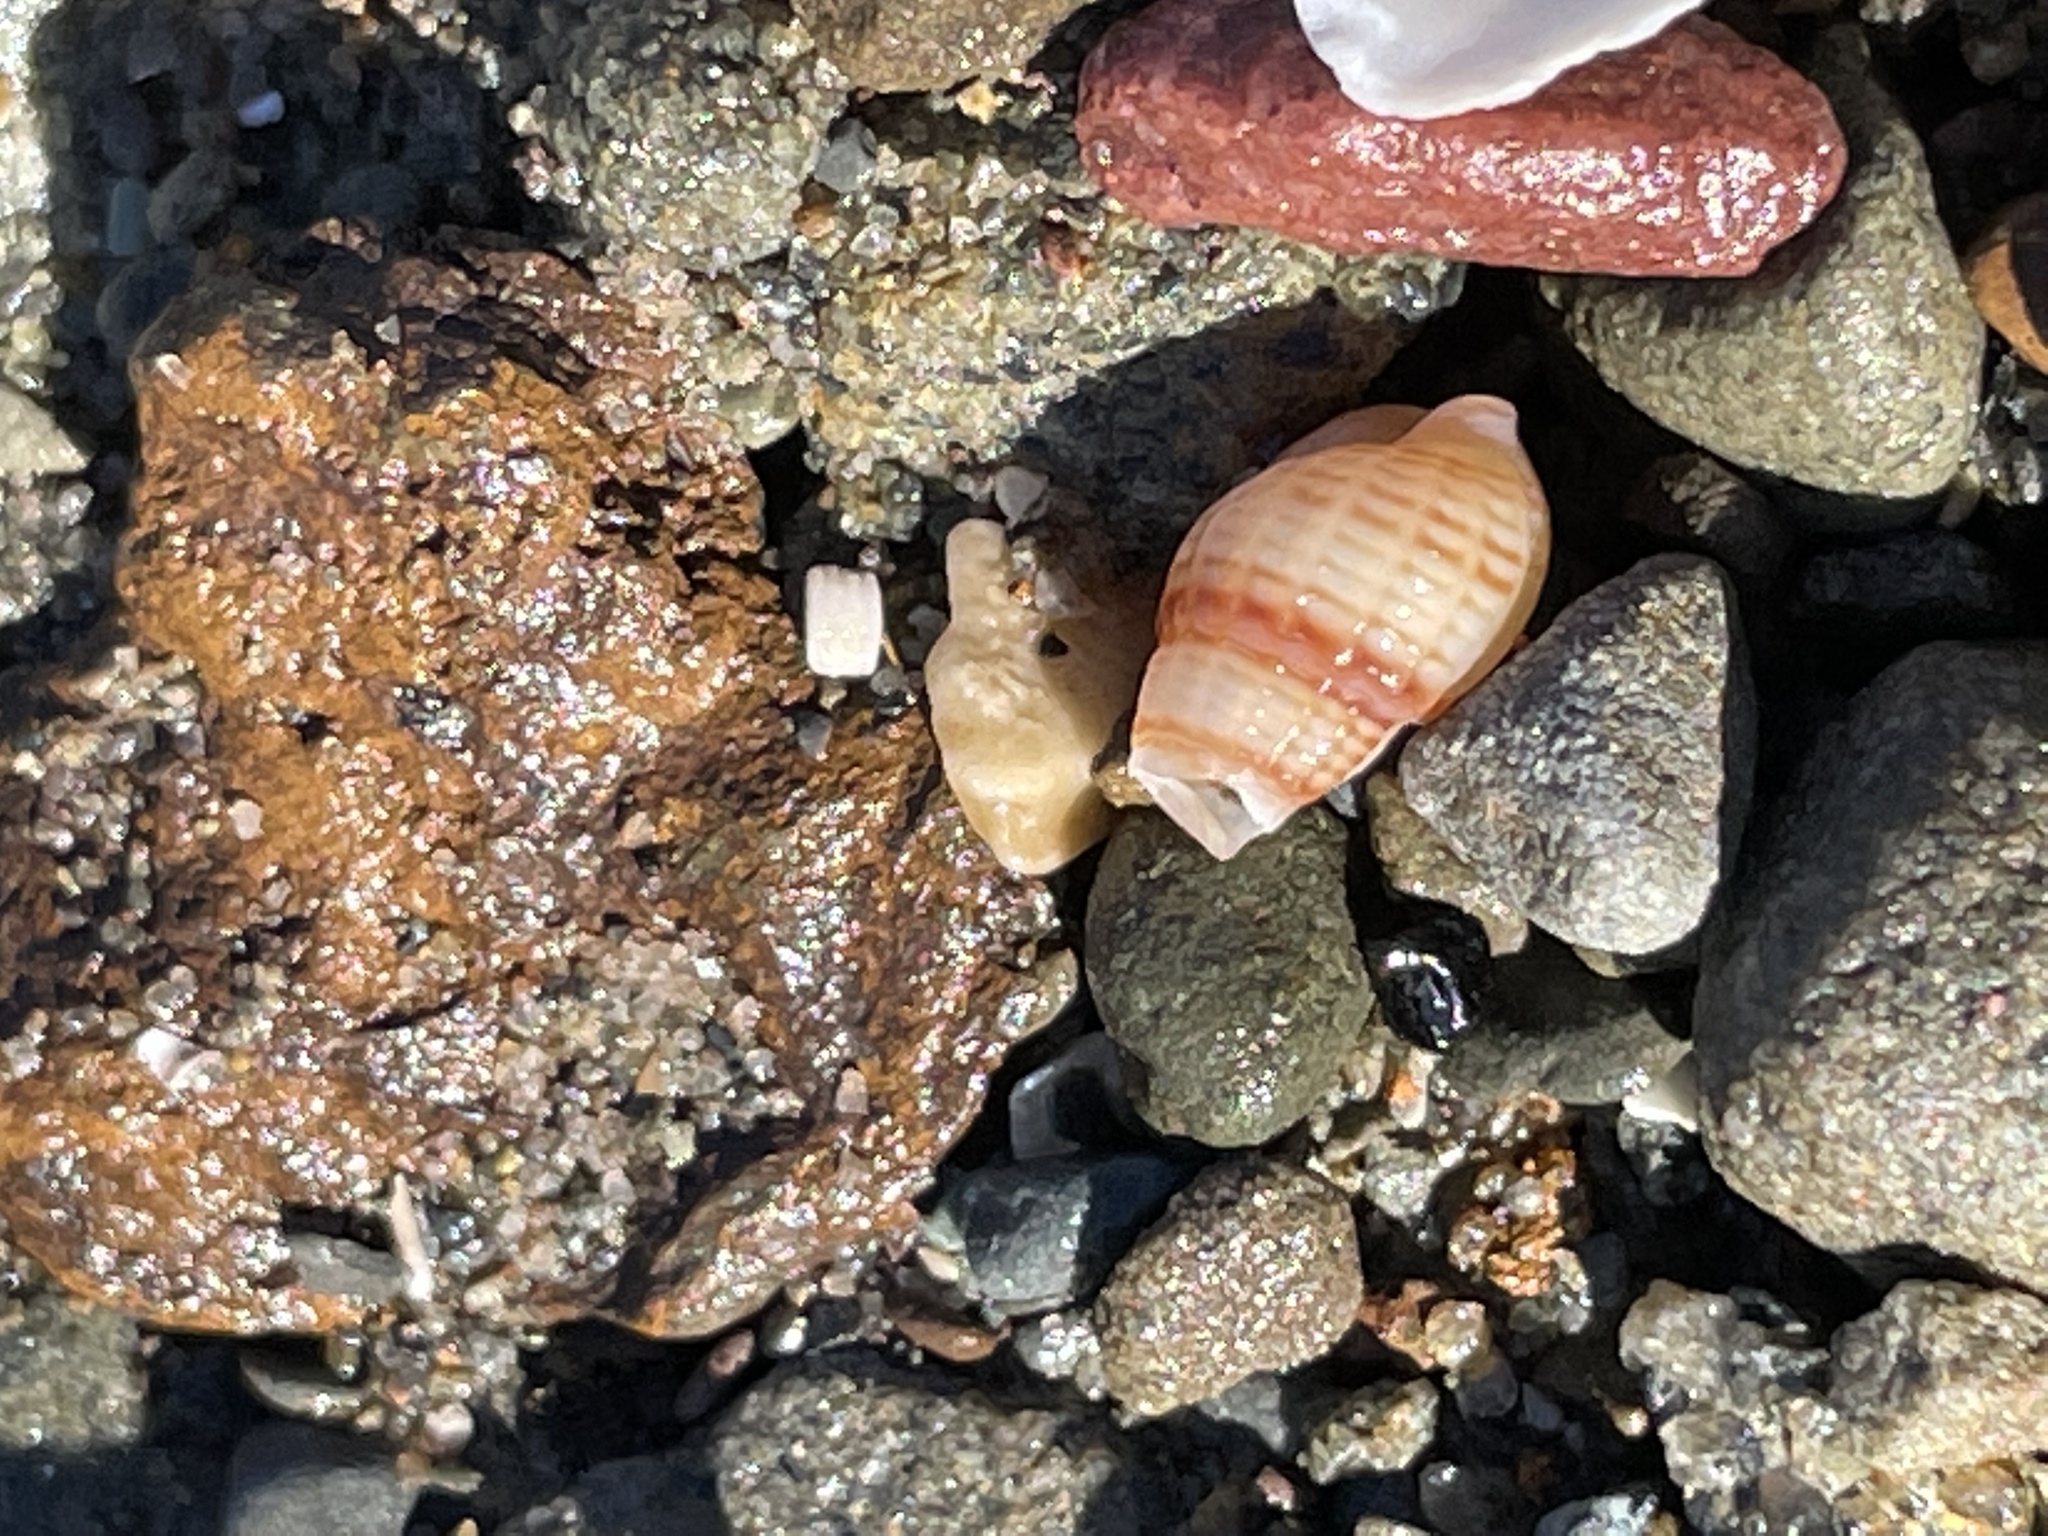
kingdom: Animalia
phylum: Mollusca
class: Gastropoda
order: Neogastropoda
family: Nassariidae
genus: Ilyanassa
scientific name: Ilyanassa trivittata
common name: Three-line mudsnail
